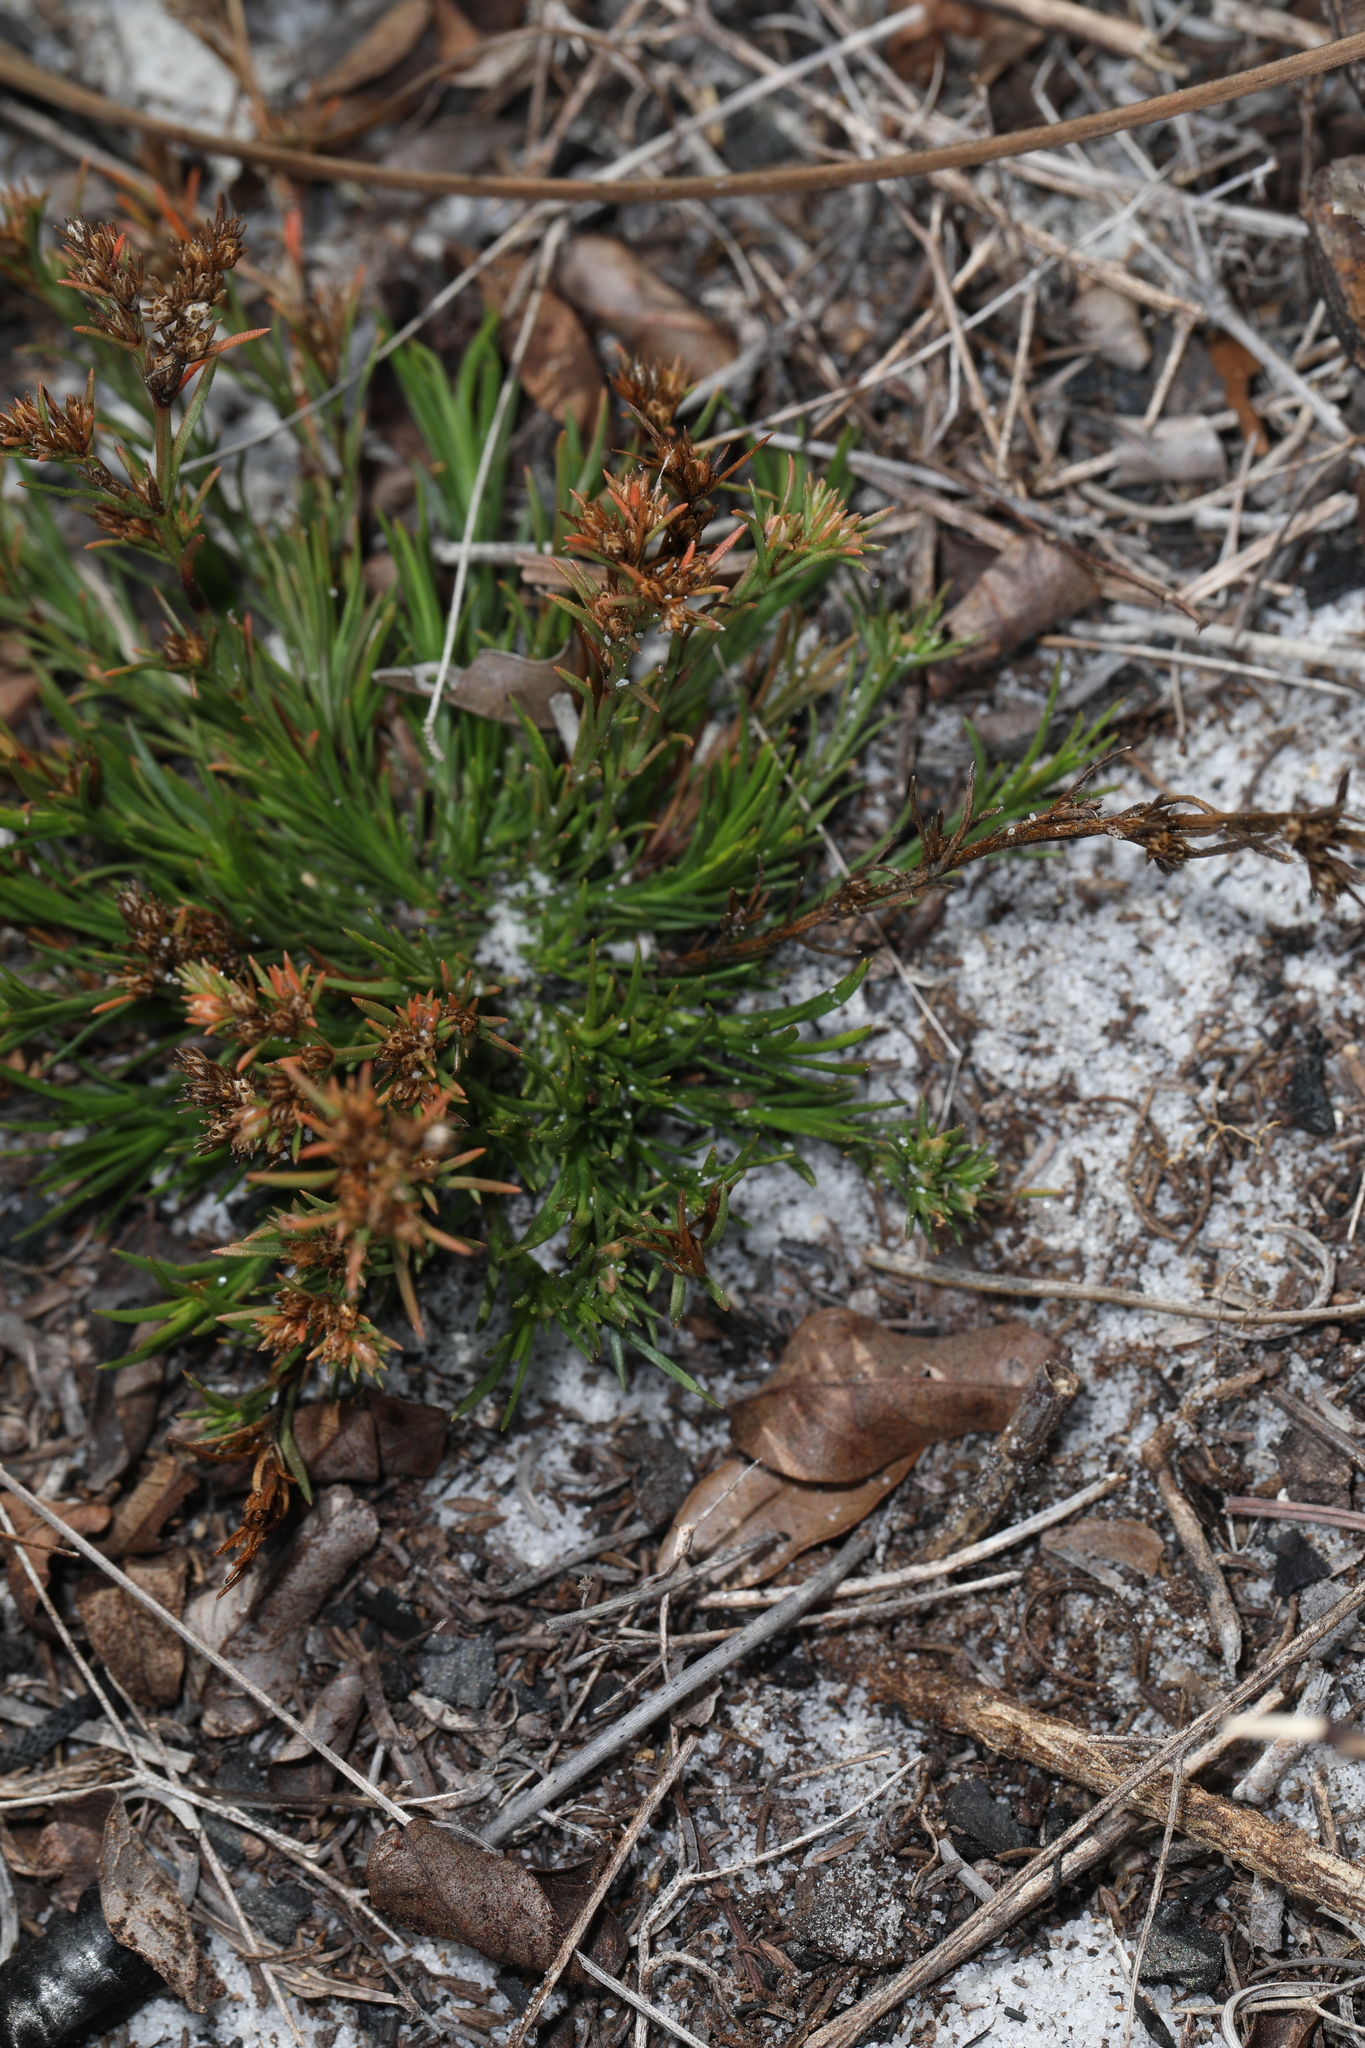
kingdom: Plantae
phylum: Tracheophyta
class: Magnoliopsida
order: Lamiales
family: Tetrachondraceae
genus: Polypremum
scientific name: Polypremum procumbens
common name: Juniper-leaf
